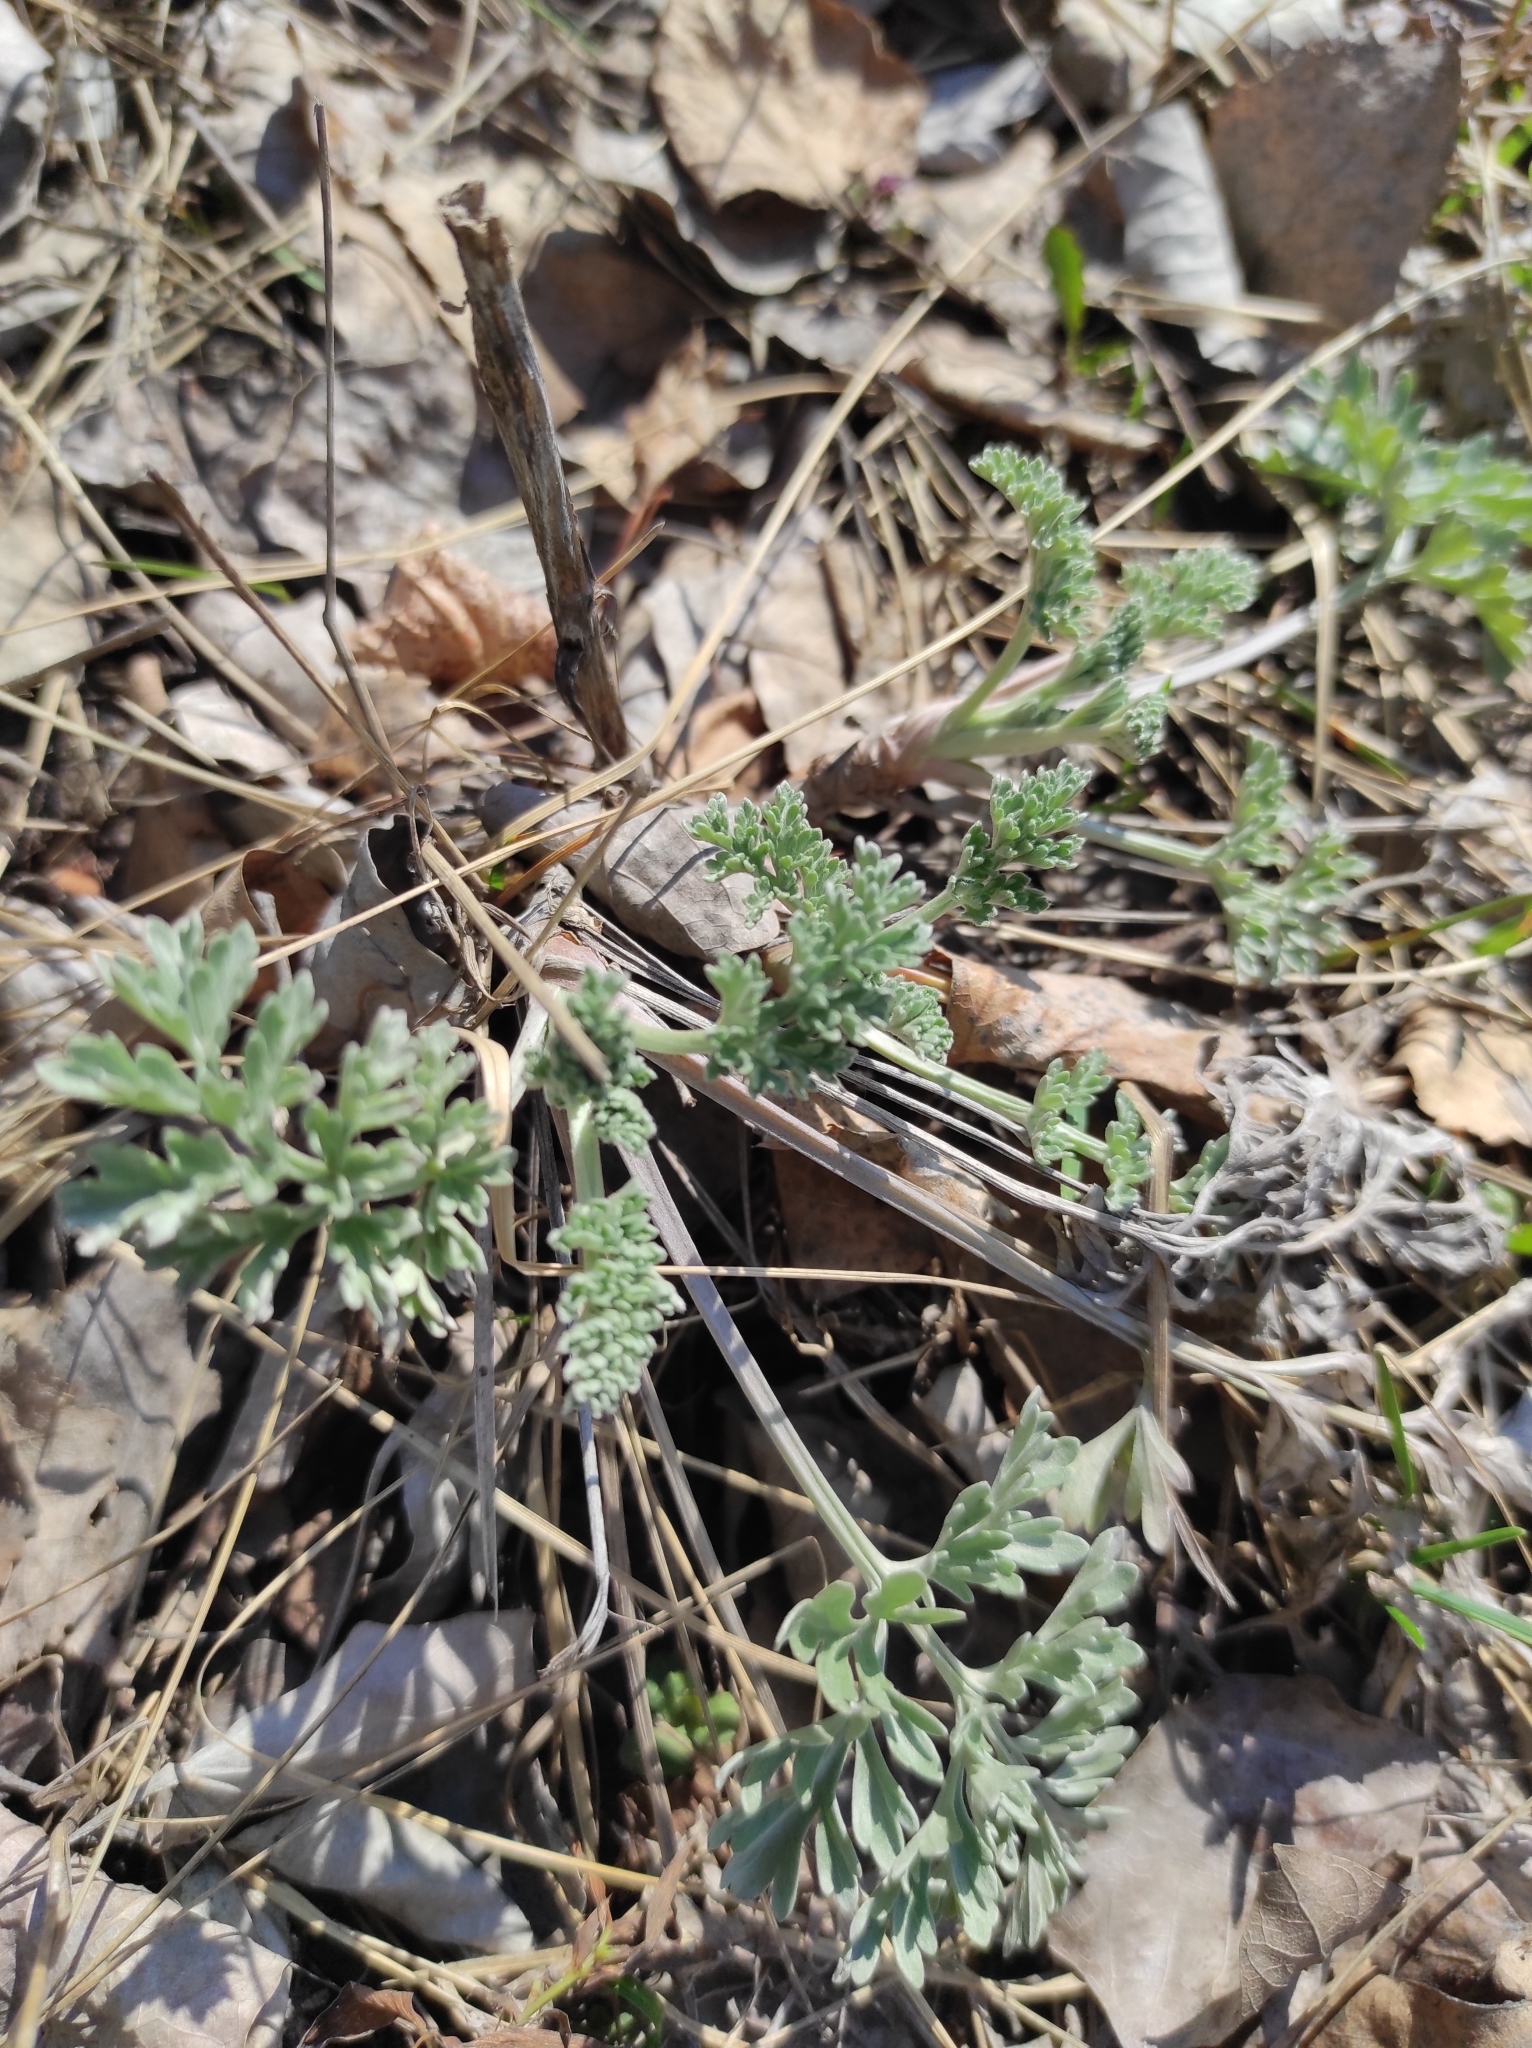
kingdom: Plantae
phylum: Tracheophyta
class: Magnoliopsida
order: Asterales
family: Asteraceae
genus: Artemisia
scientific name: Artemisia absinthium
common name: Wormwood
